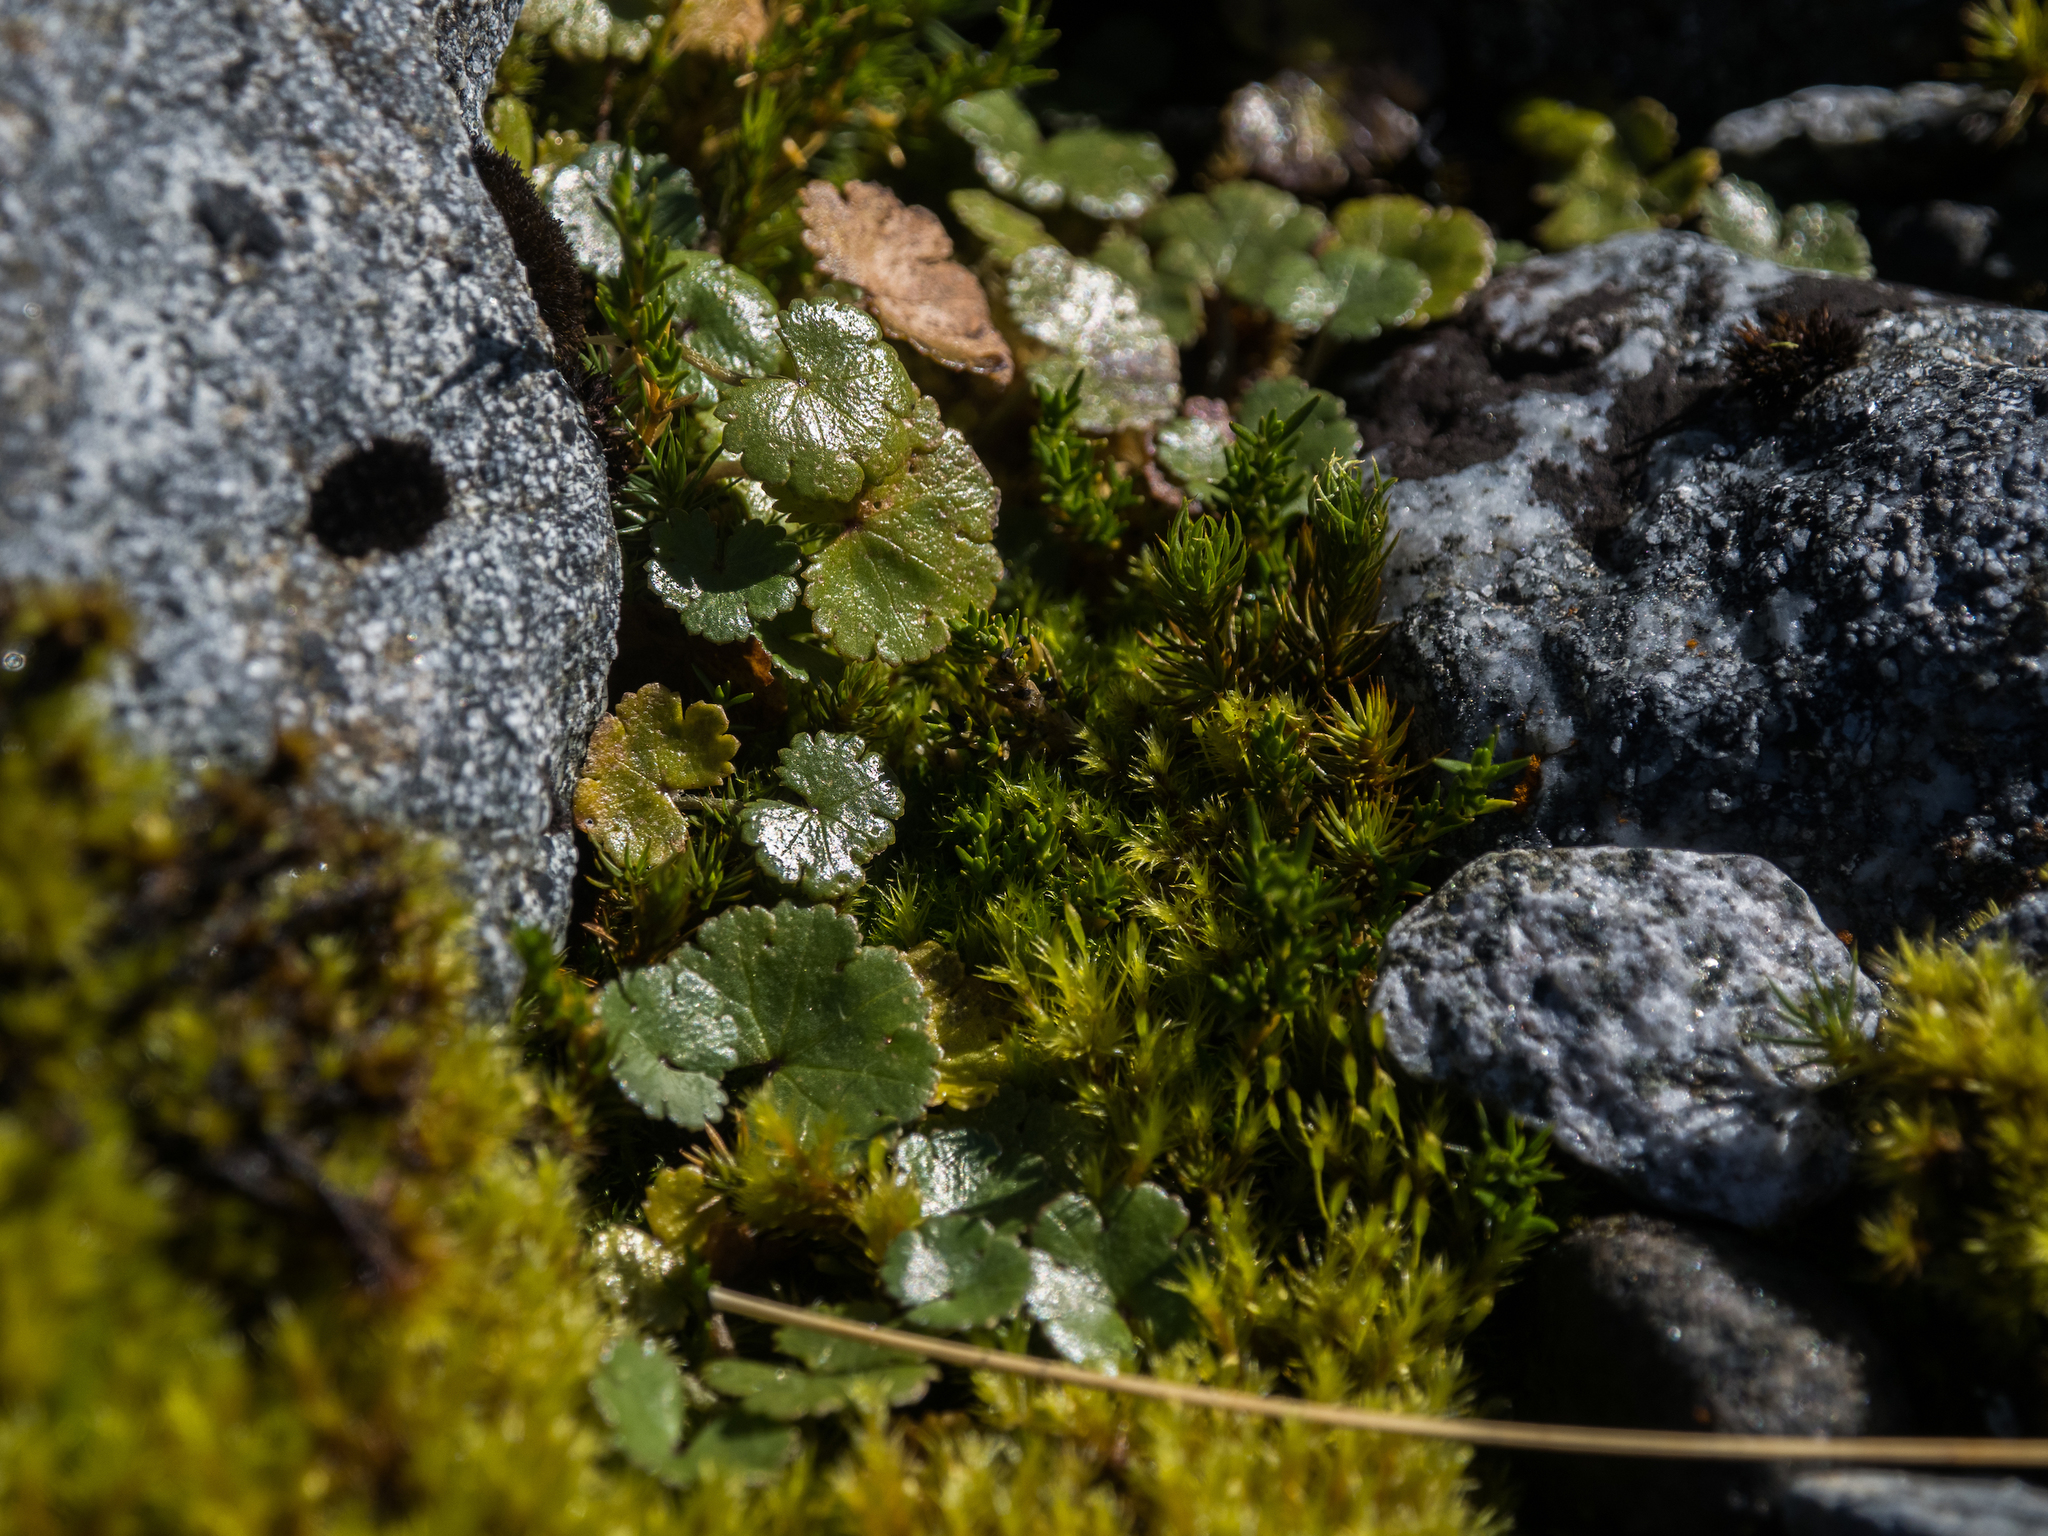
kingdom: Plantae
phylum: Tracheophyta
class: Magnoliopsida
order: Apiales
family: Araliaceae
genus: Hydrocotyle
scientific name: Hydrocotyle novae-zeelandiae
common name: New zealand pennywort
